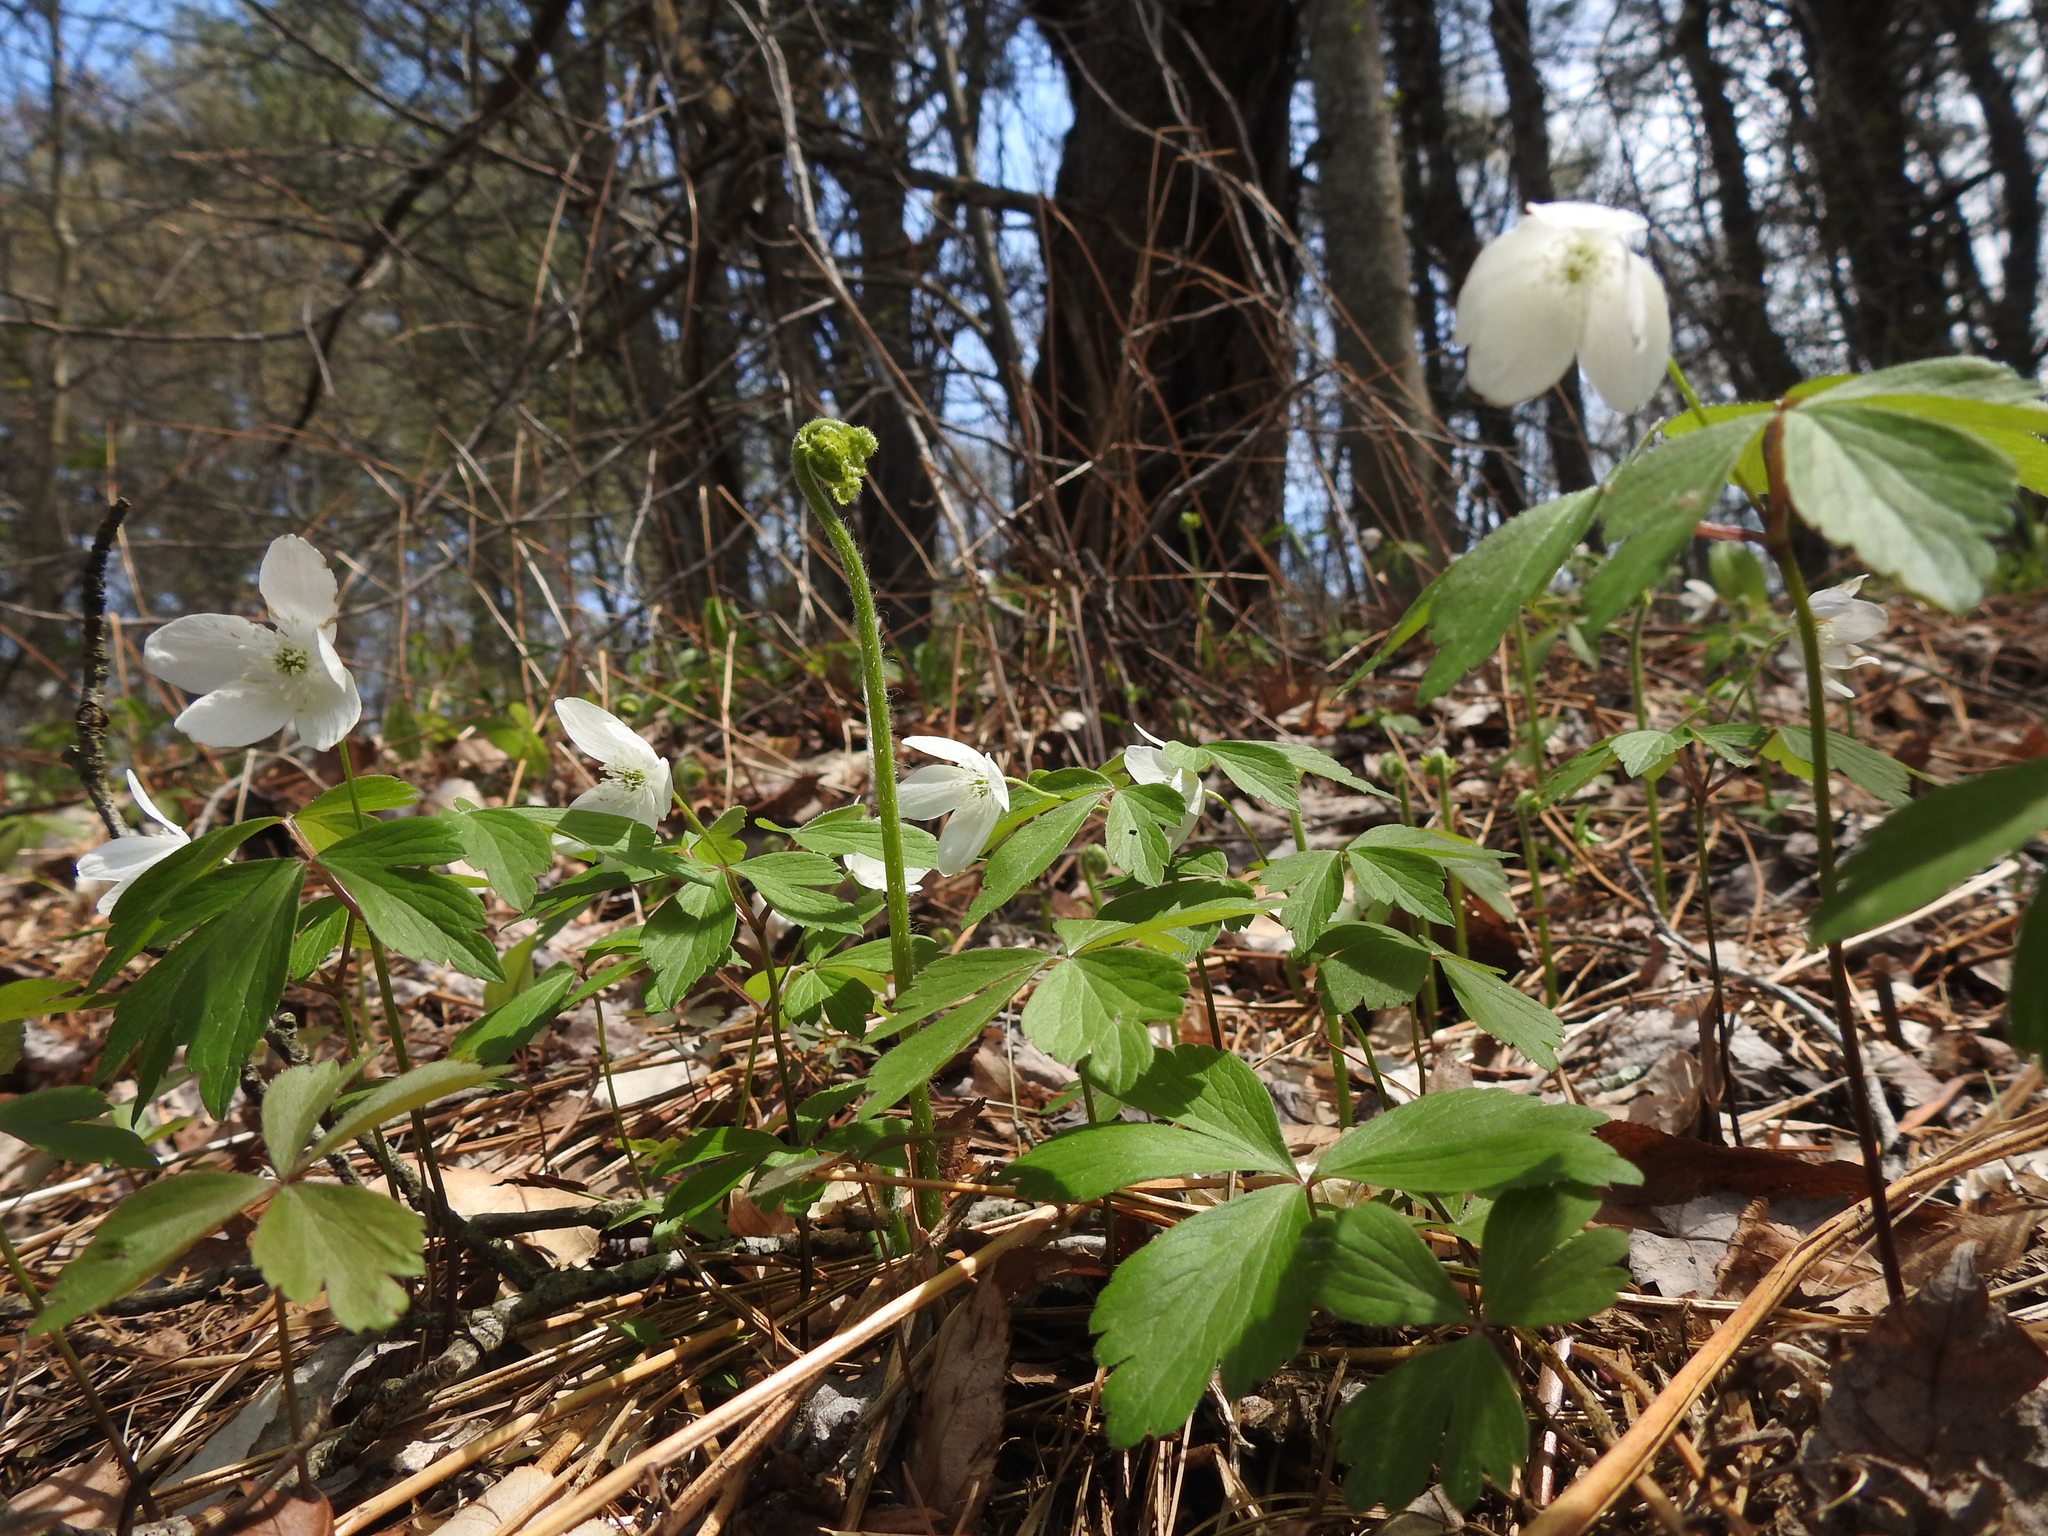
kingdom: Plantae
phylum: Tracheophyta
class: Magnoliopsida
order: Ranunculales
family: Ranunculaceae
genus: Anemone
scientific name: Anemone quinquefolia
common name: Wood anemone
